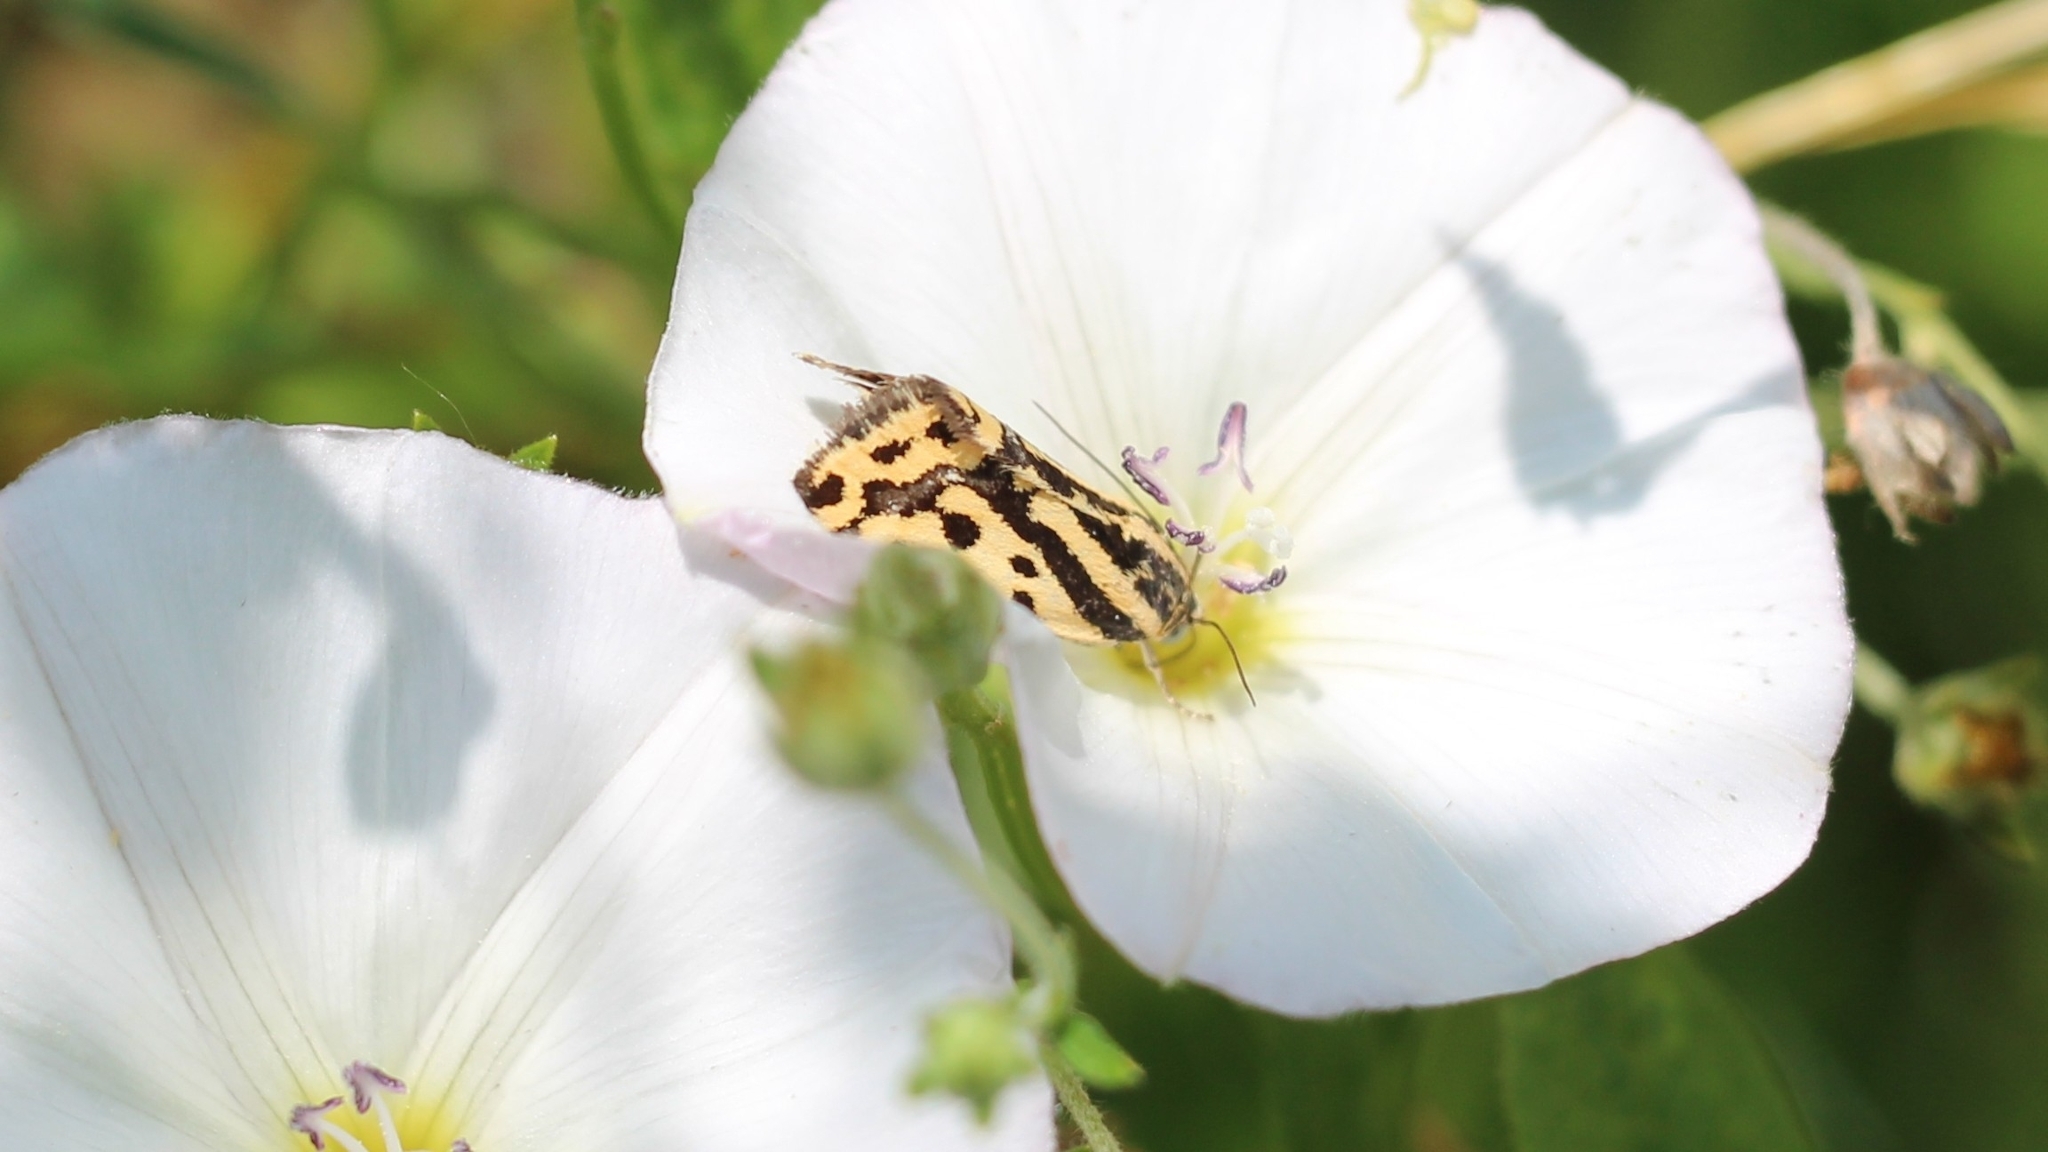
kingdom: Animalia
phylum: Arthropoda
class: Insecta
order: Lepidoptera
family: Noctuidae
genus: Acontia
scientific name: Acontia trabealis
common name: Spotted sulphur
